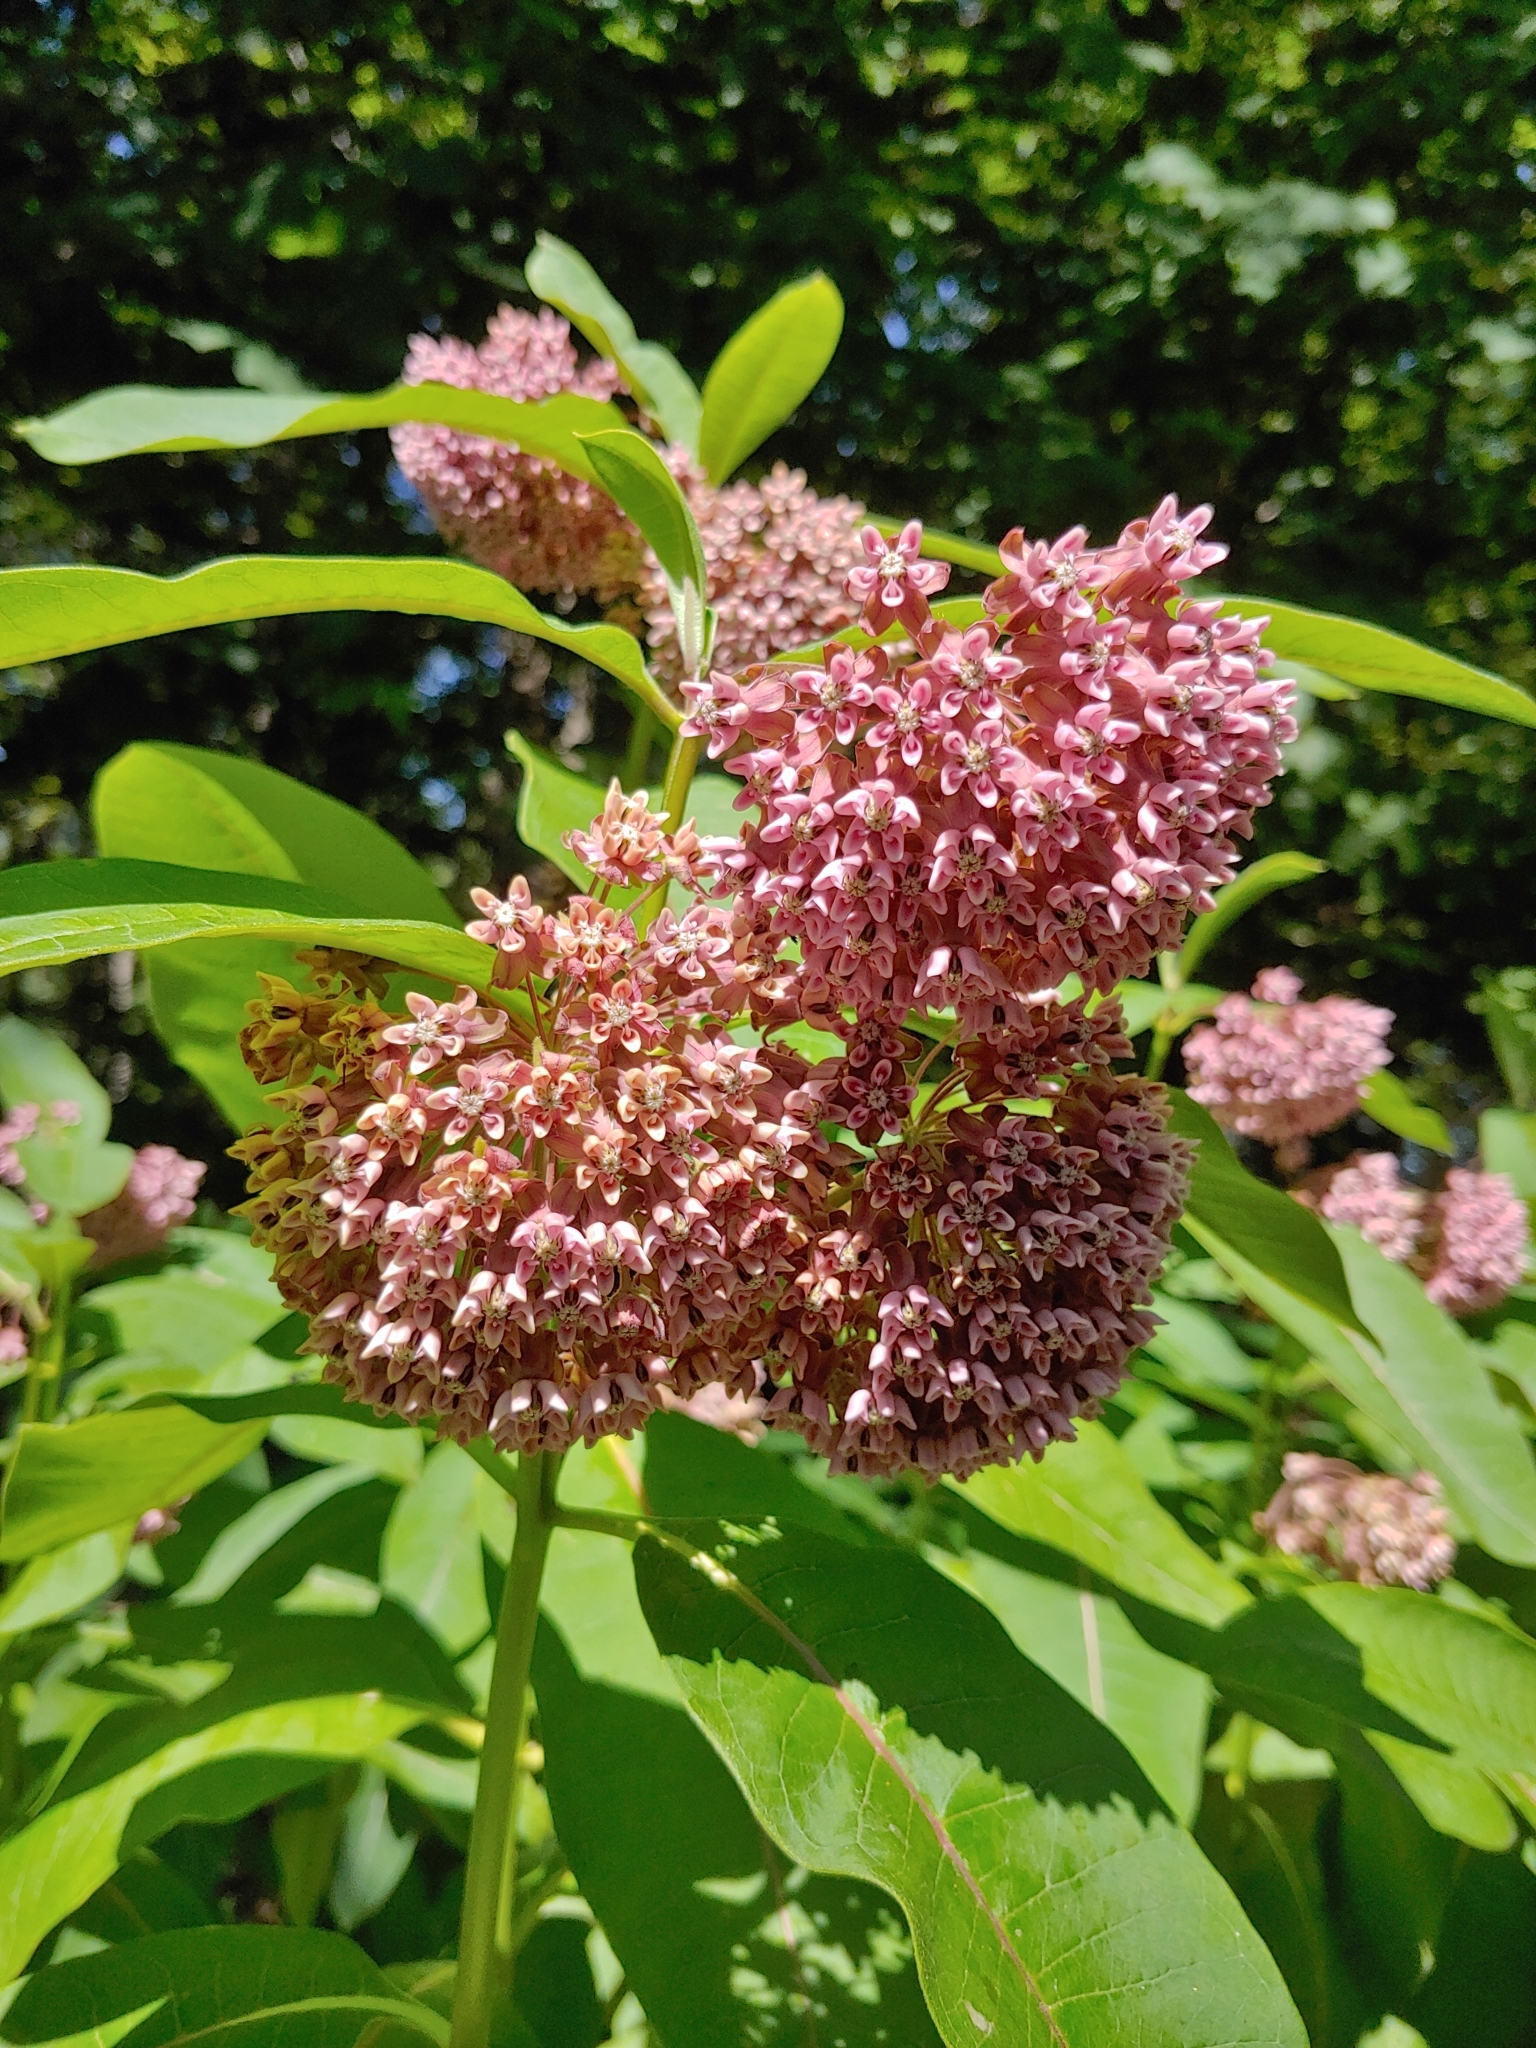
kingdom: Plantae
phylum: Tracheophyta
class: Magnoliopsida
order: Gentianales
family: Apocynaceae
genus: Asclepias
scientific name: Asclepias syriaca
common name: Common milkweed
